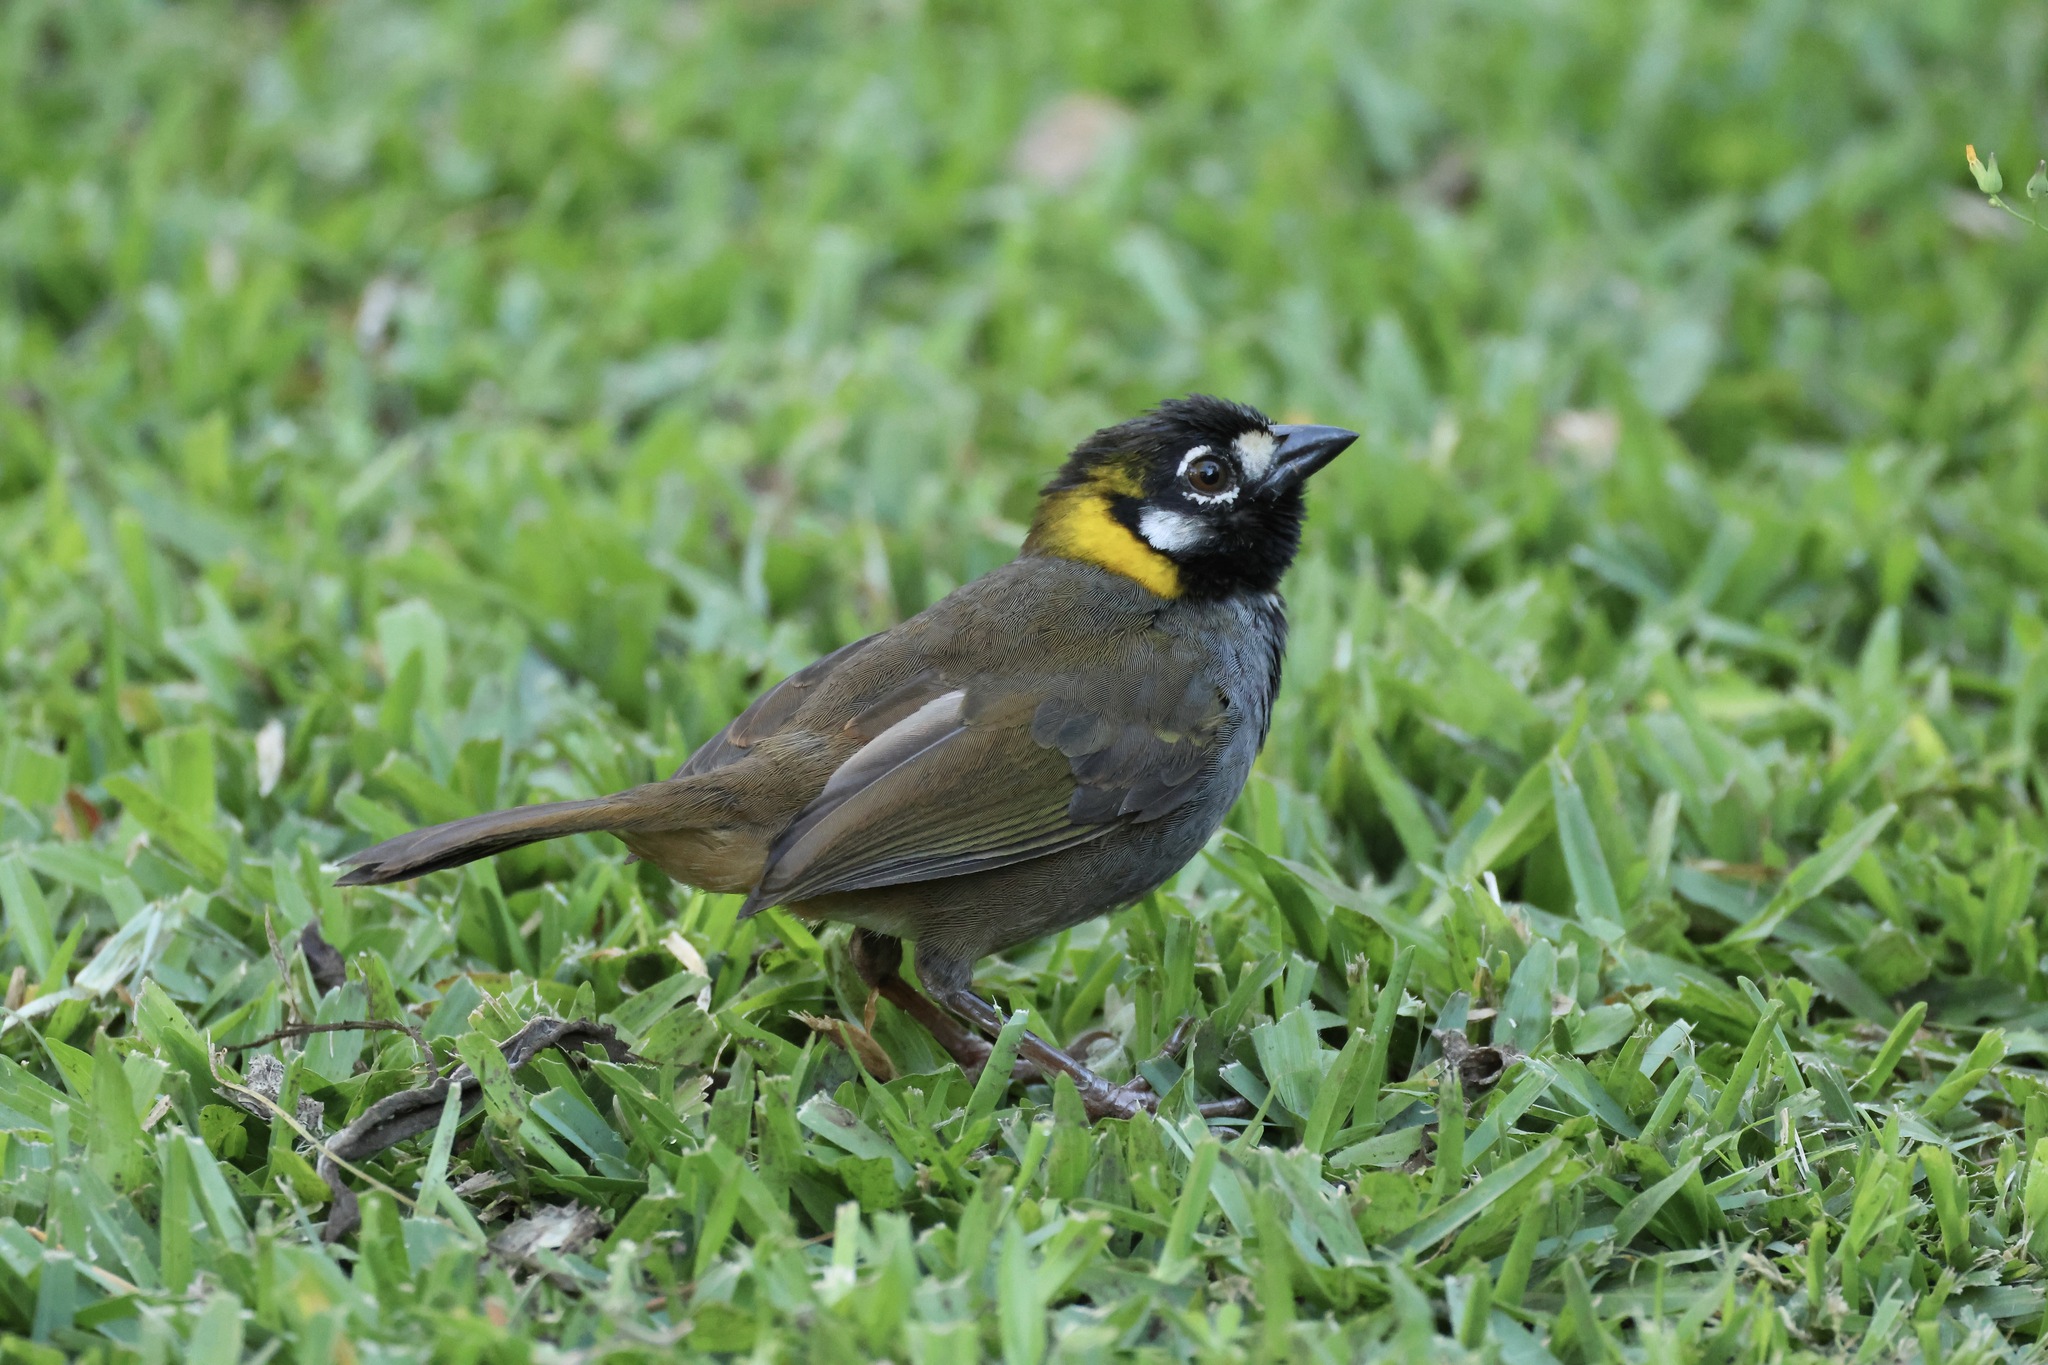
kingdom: Animalia
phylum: Chordata
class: Aves
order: Passeriformes
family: Passerellidae
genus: Melozone
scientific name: Melozone leucotis
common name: White-eared ground-sparrow
